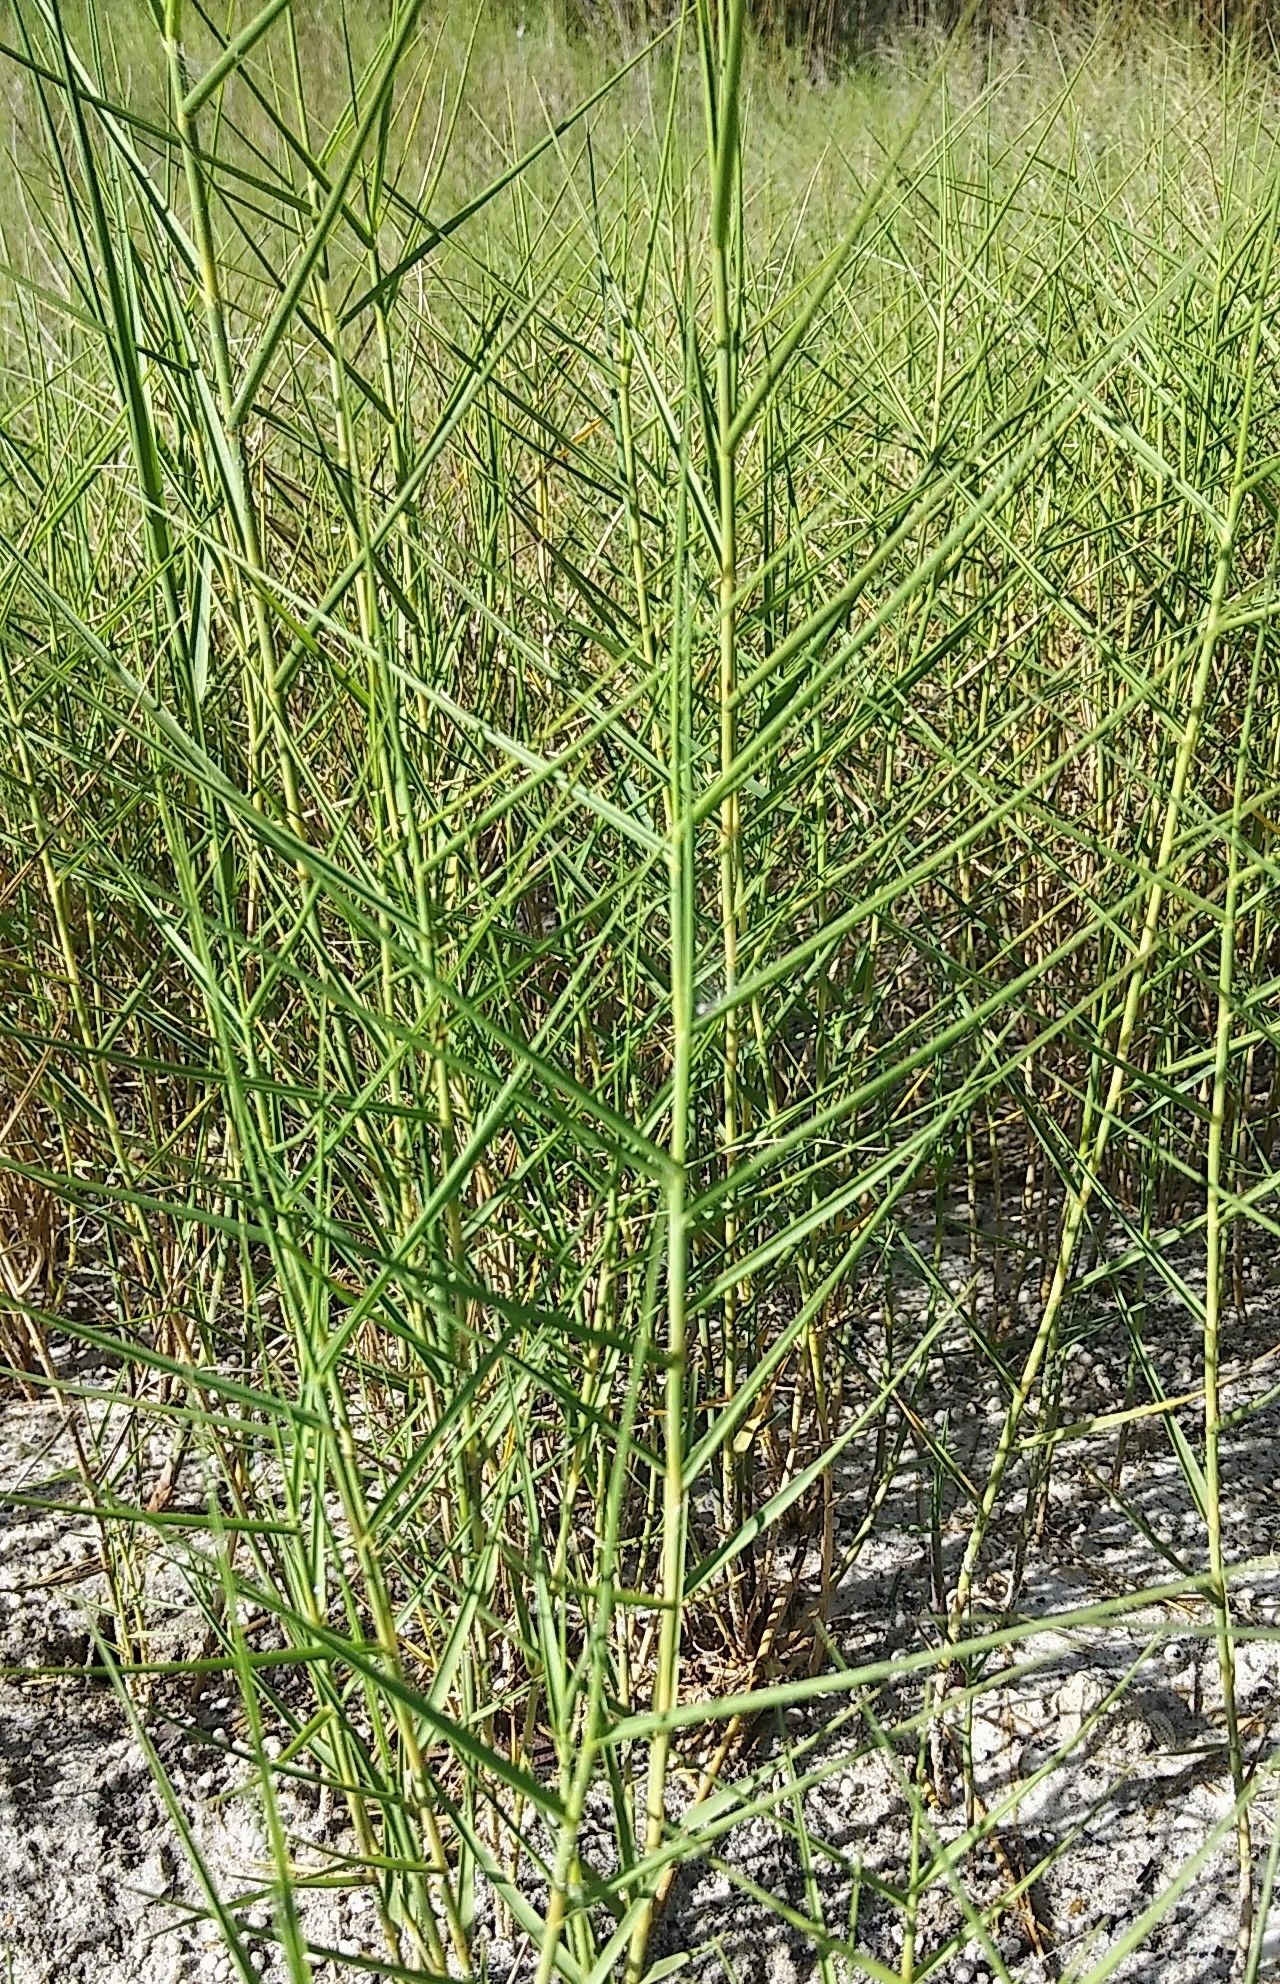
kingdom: Plantae
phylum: Tracheophyta
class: Liliopsida
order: Poales
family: Poaceae
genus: Distichlis
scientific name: Distichlis spicata
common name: Saltgrass
